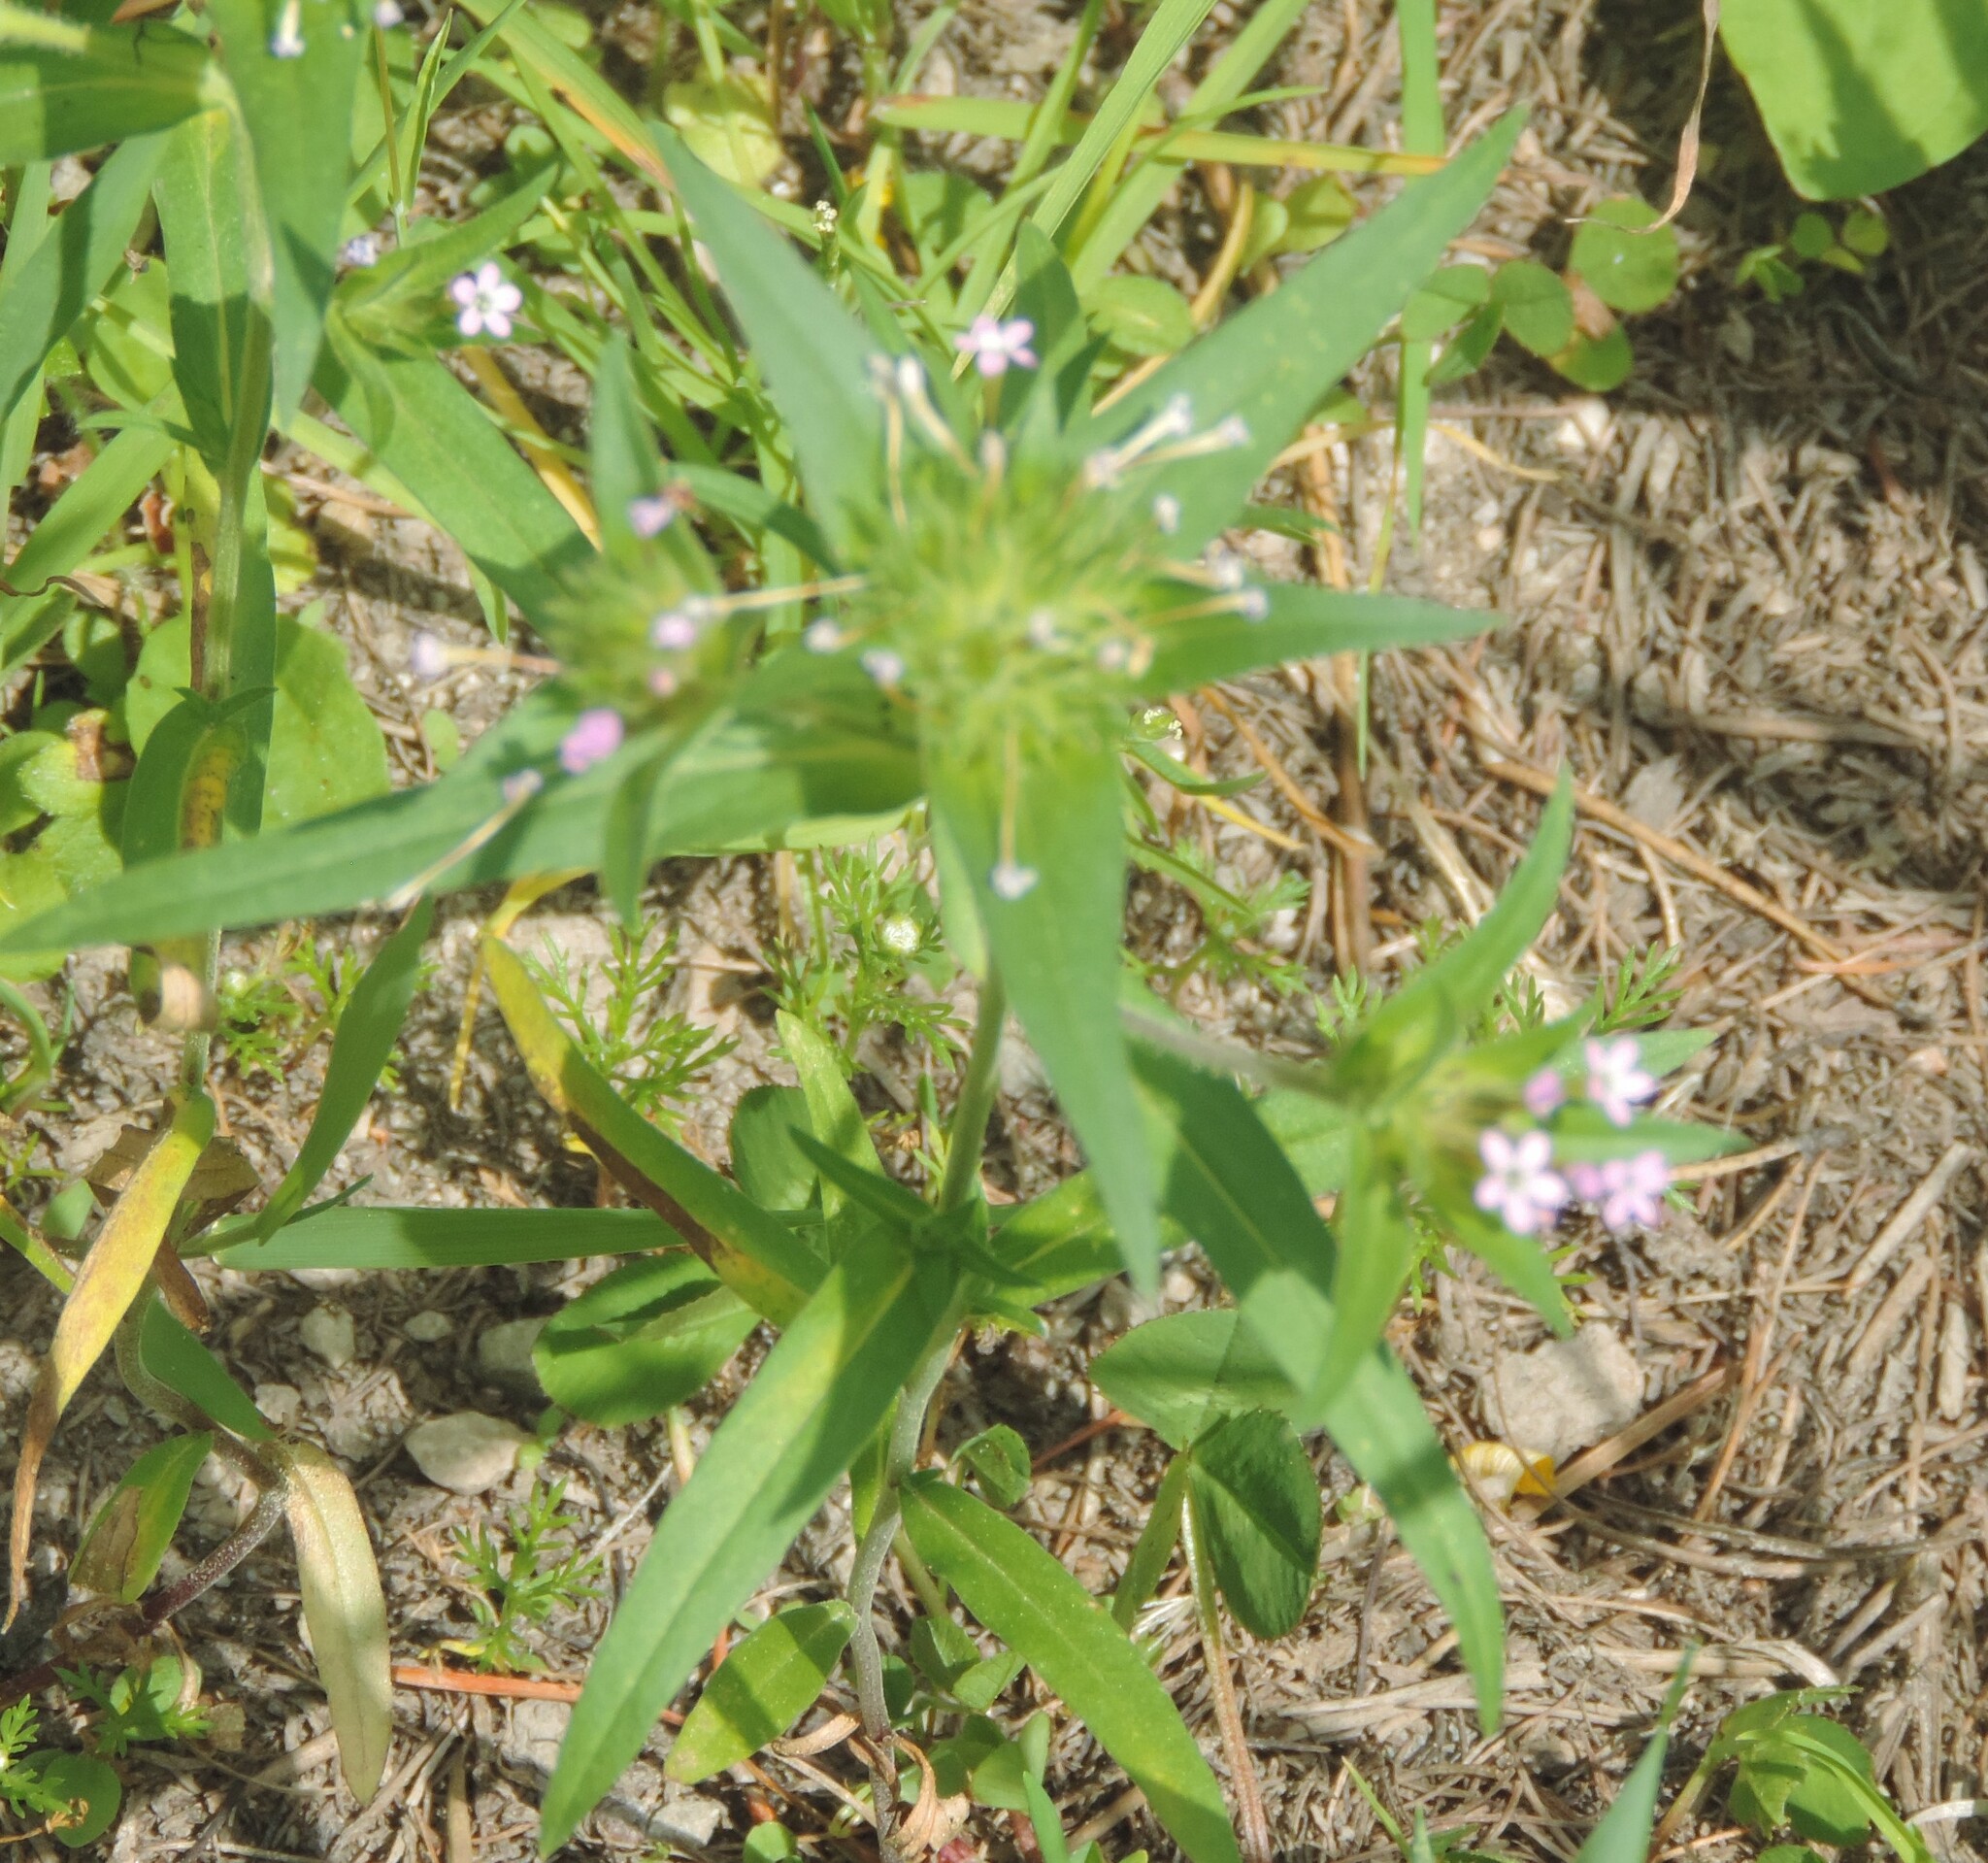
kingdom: Plantae
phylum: Tracheophyta
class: Magnoliopsida
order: Ericales
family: Polemoniaceae
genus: Collomia
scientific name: Collomia linearis
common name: Tiny trumpet
